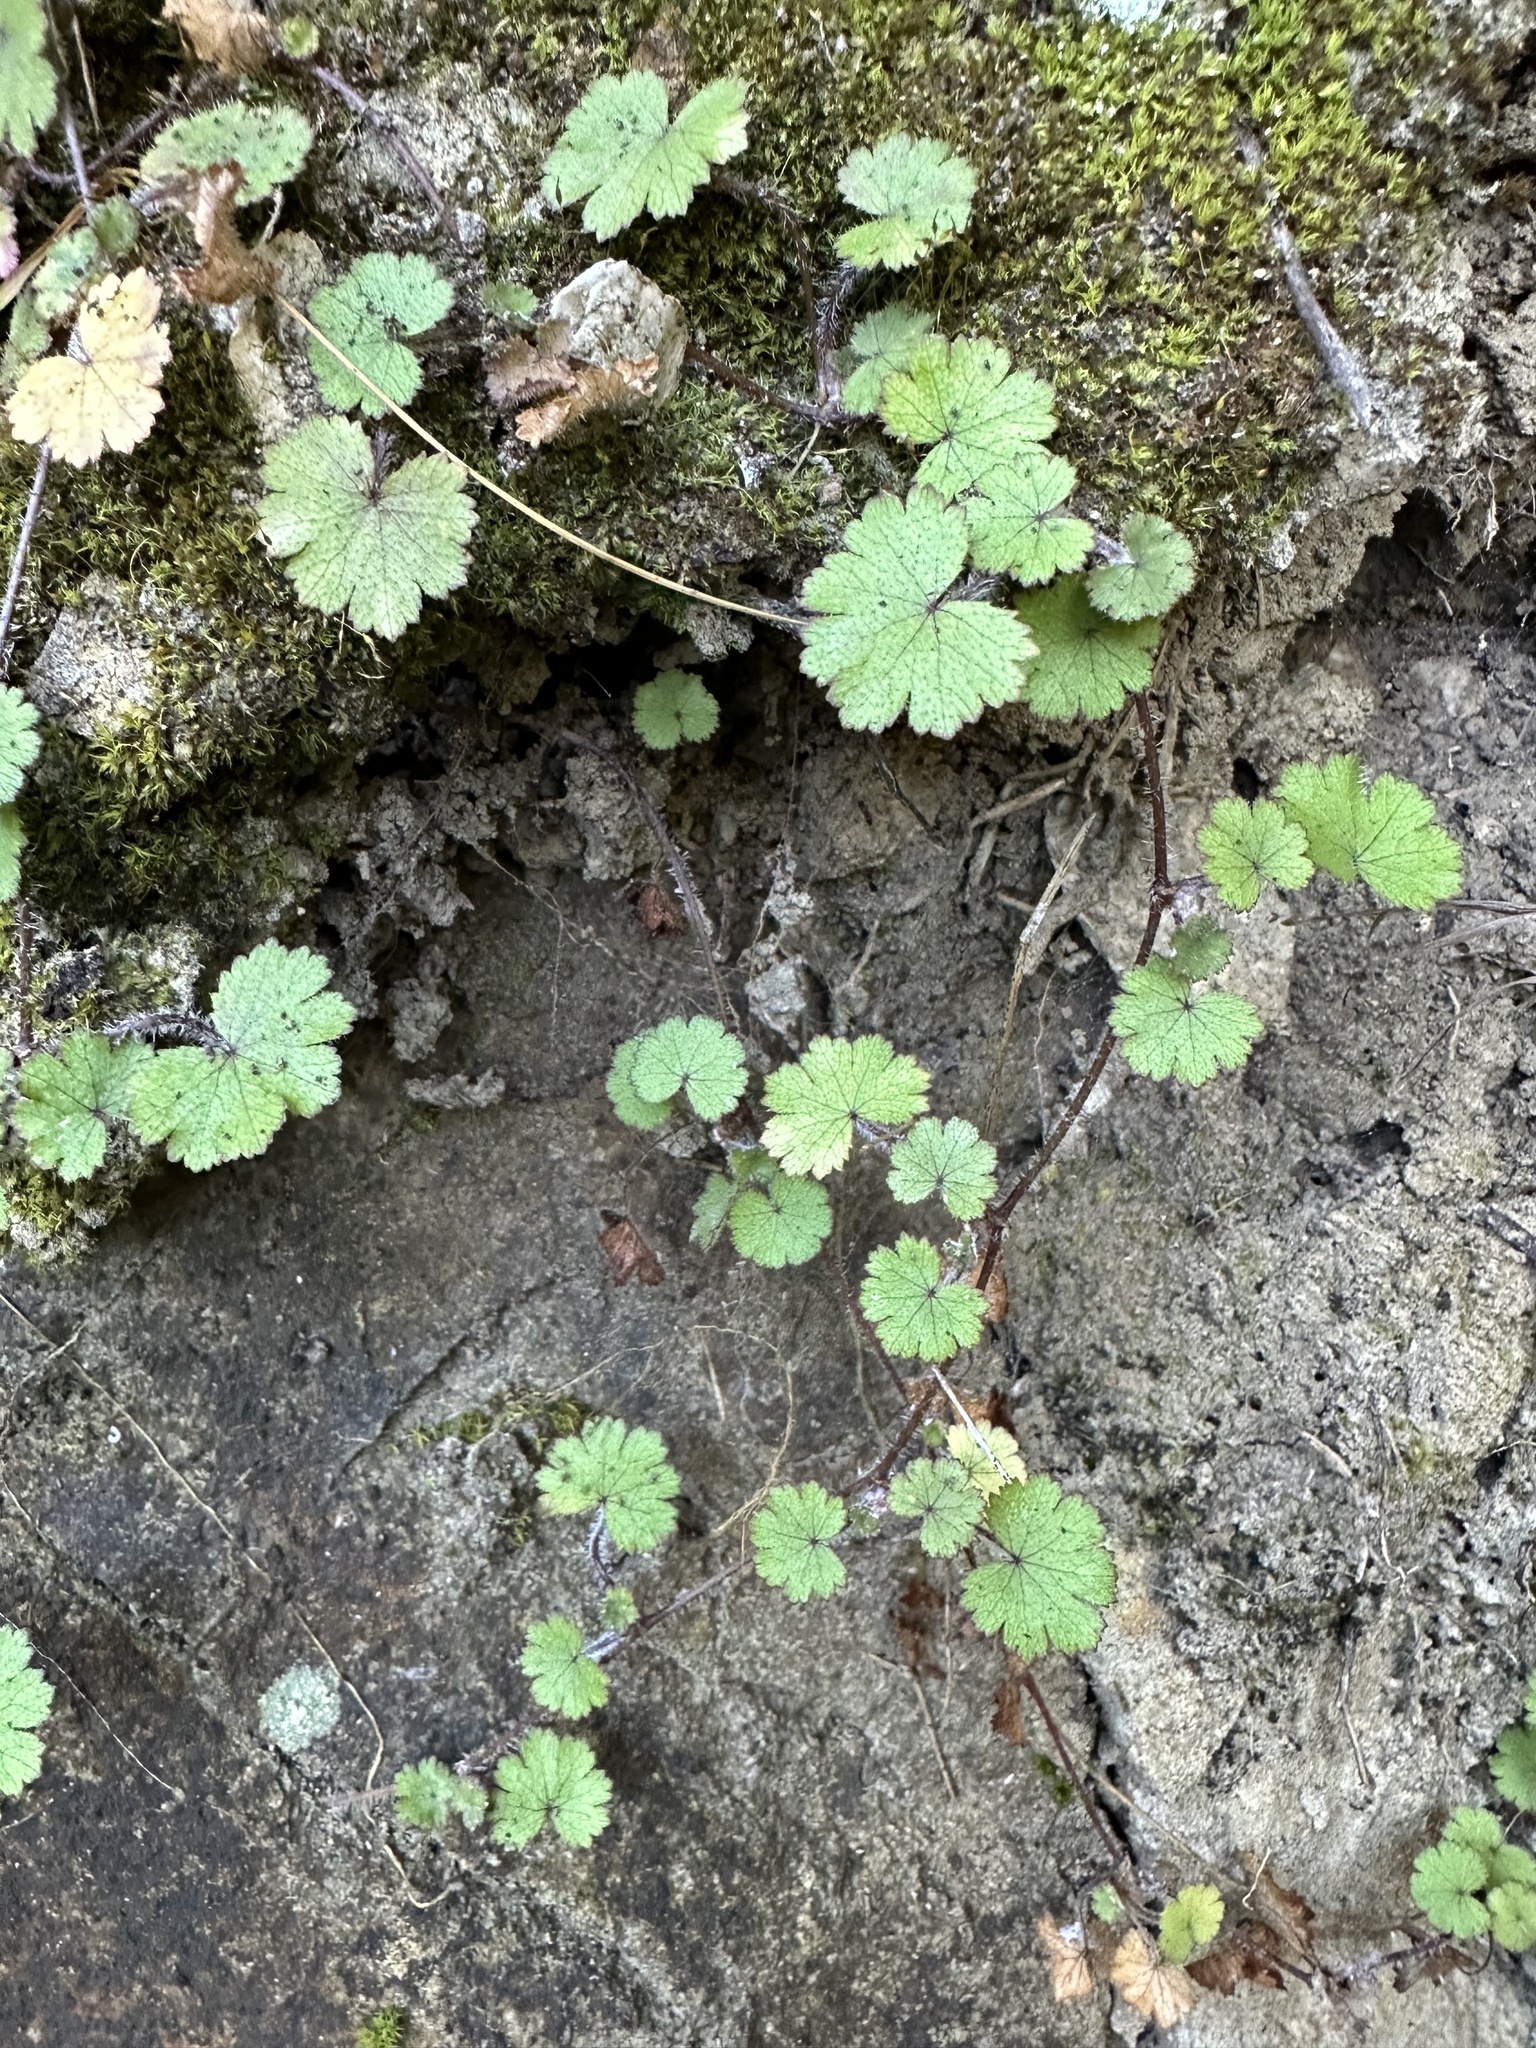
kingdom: Plantae
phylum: Tracheophyta
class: Magnoliopsida
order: Apiales
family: Araliaceae
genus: Hydrocotyle
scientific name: Hydrocotyle moschata
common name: Hairy pennywort
